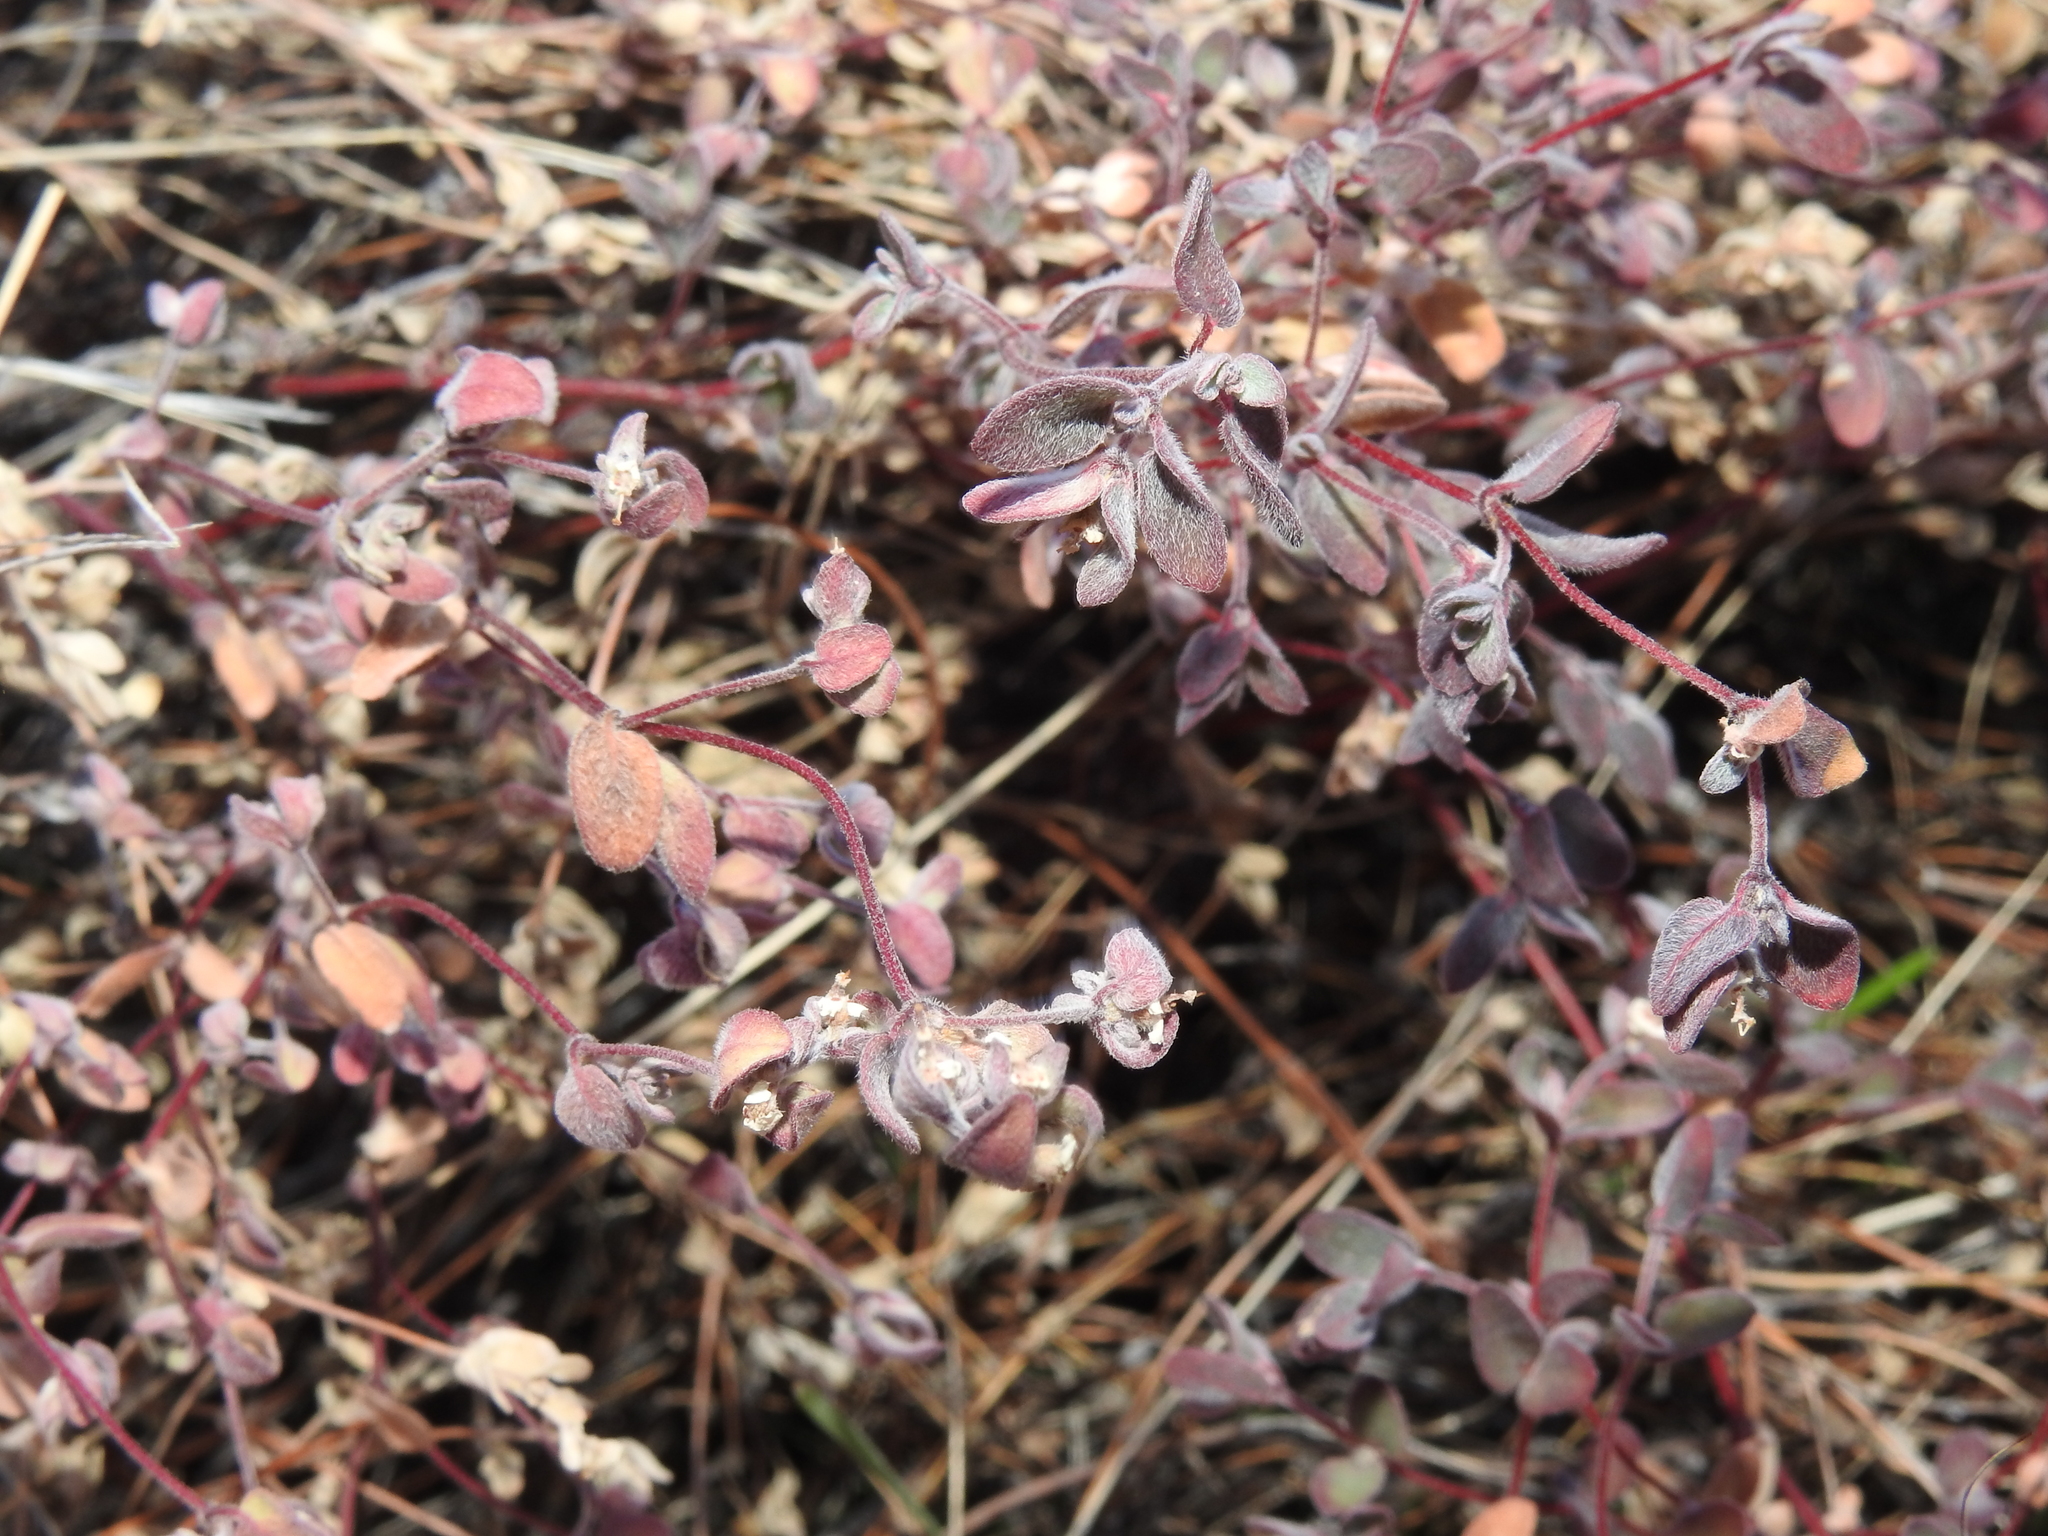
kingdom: Plantae
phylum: Tracheophyta
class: Magnoliopsida
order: Malpighiales
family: Euphorbiaceae
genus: Euphorbia
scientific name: Euphorbia melanadenia
